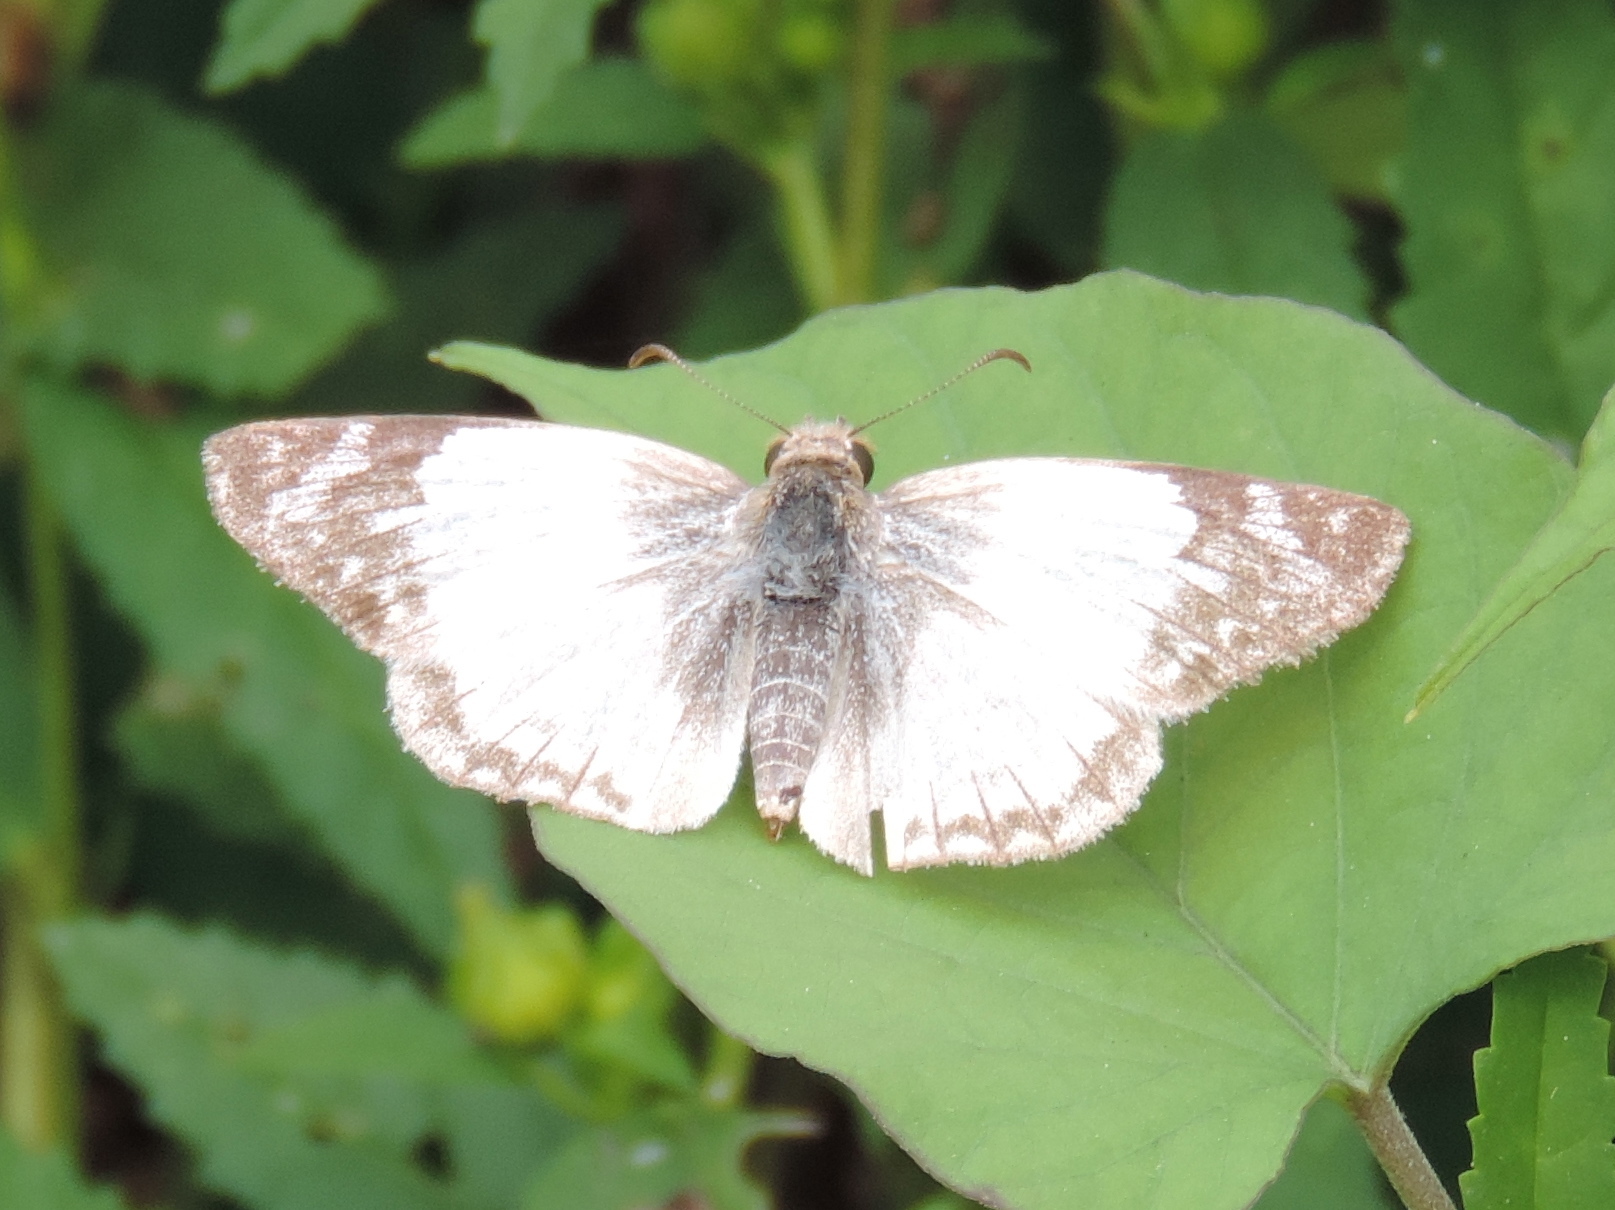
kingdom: Animalia
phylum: Arthropoda
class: Insecta
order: Lepidoptera
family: Hesperiidae
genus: Heliopetes
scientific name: Heliopetes laviana
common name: Laviana white-skipper
